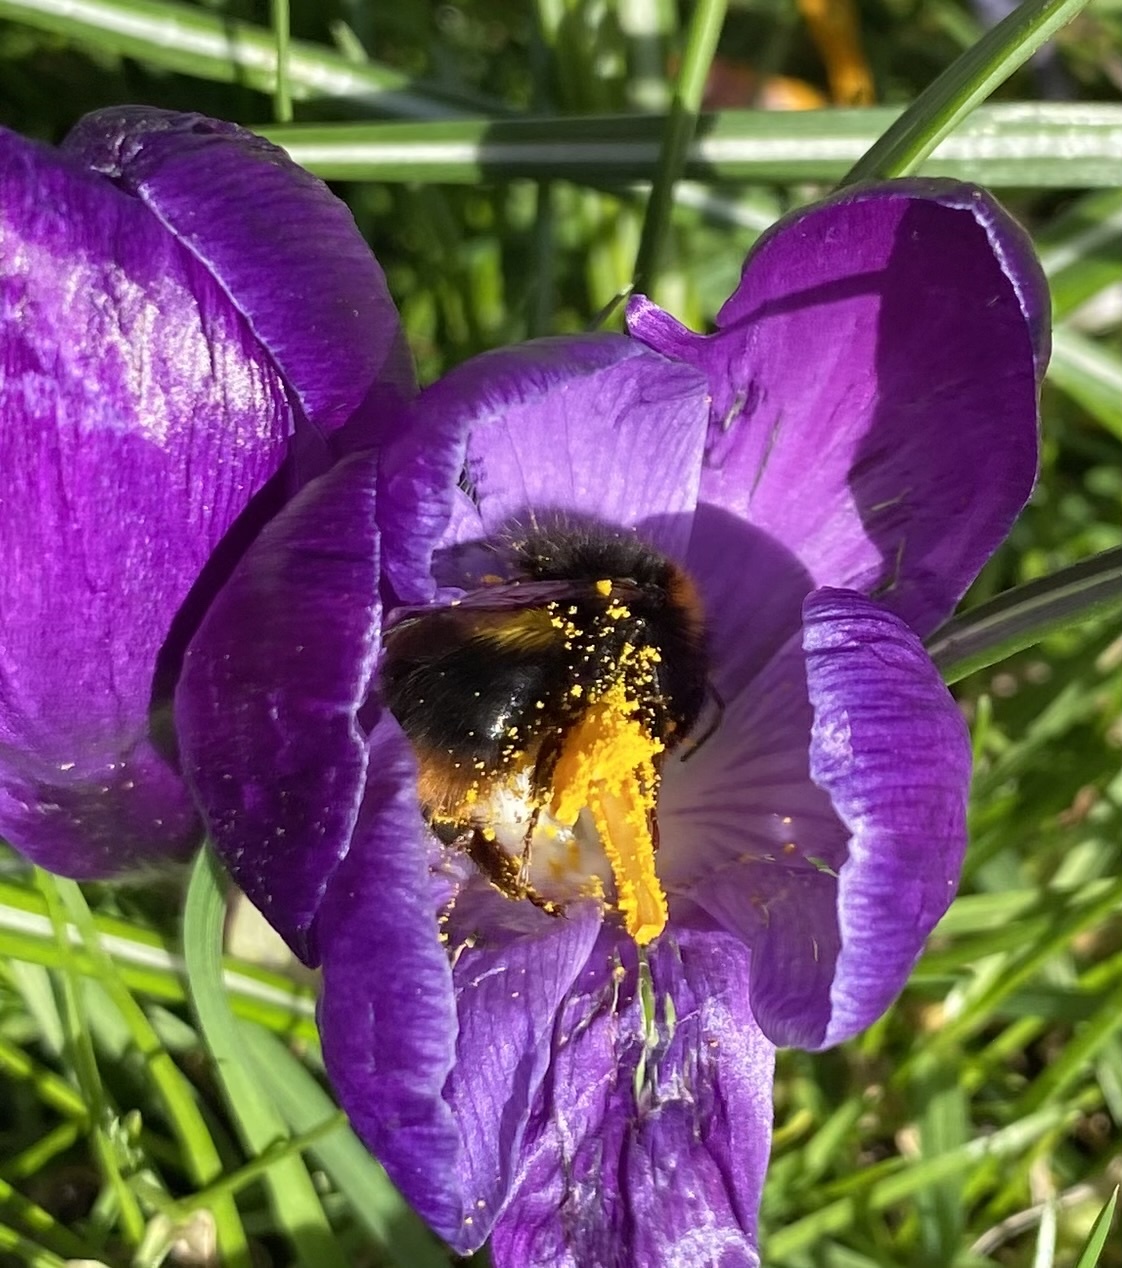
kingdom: Animalia
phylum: Arthropoda
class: Insecta
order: Hymenoptera
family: Apidae
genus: Bombus
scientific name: Bombus pratorum
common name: Early humble-bee
